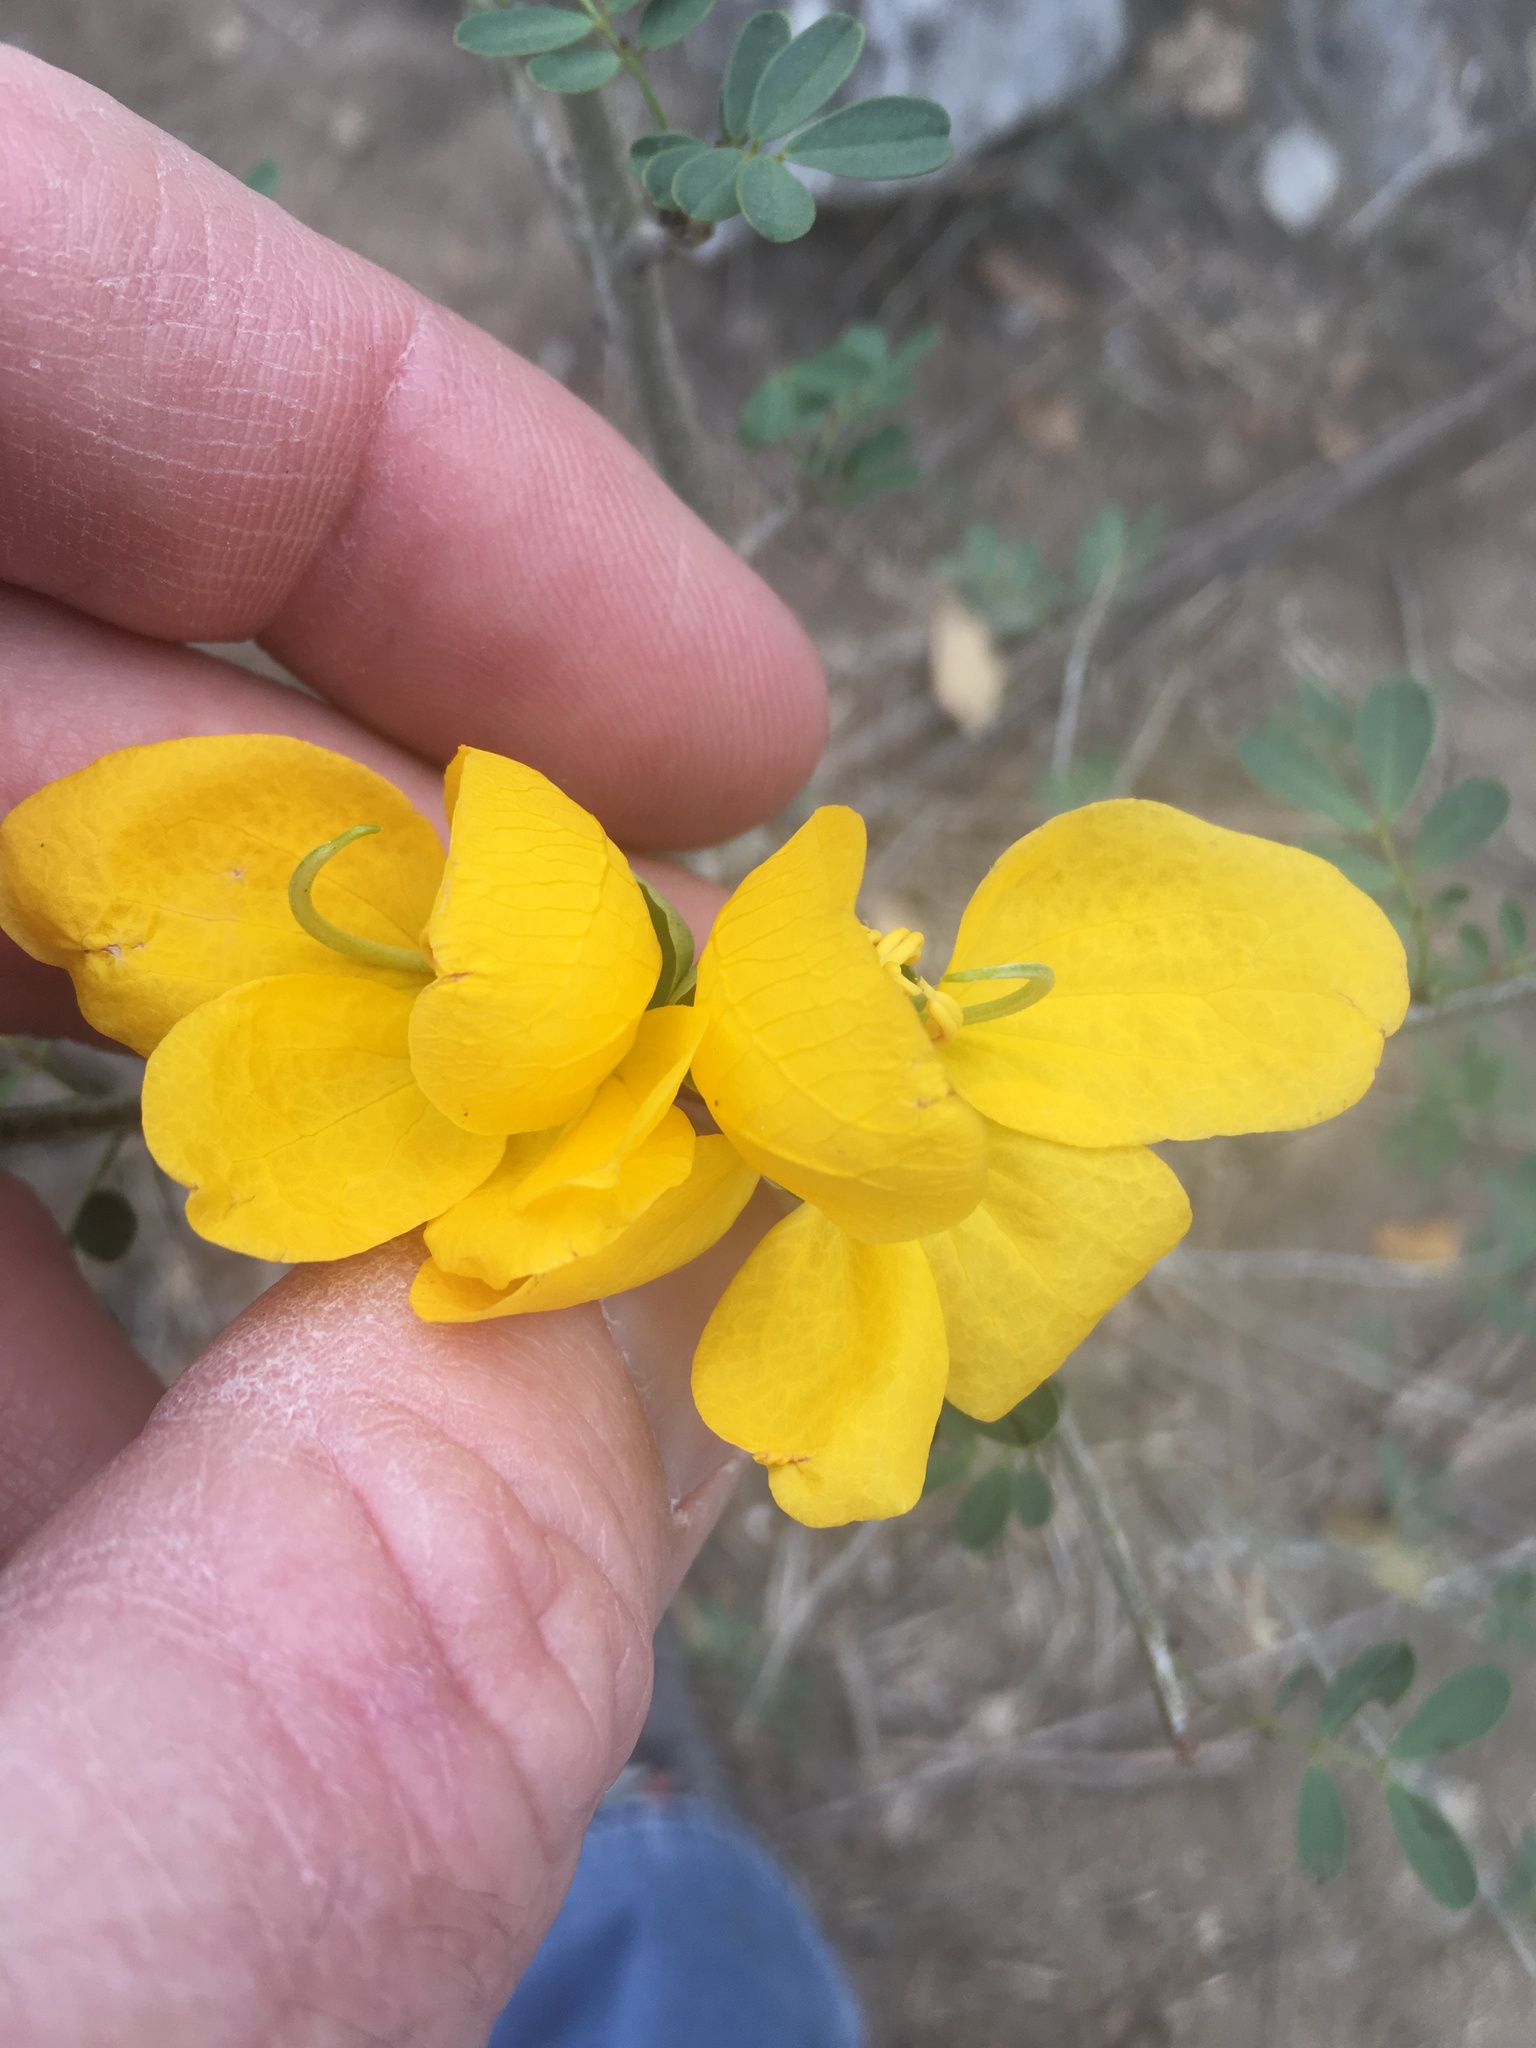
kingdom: Plantae
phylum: Tracheophyta
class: Magnoliopsida
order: Fabales
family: Fabaceae
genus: Senna
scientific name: Senna pallida
